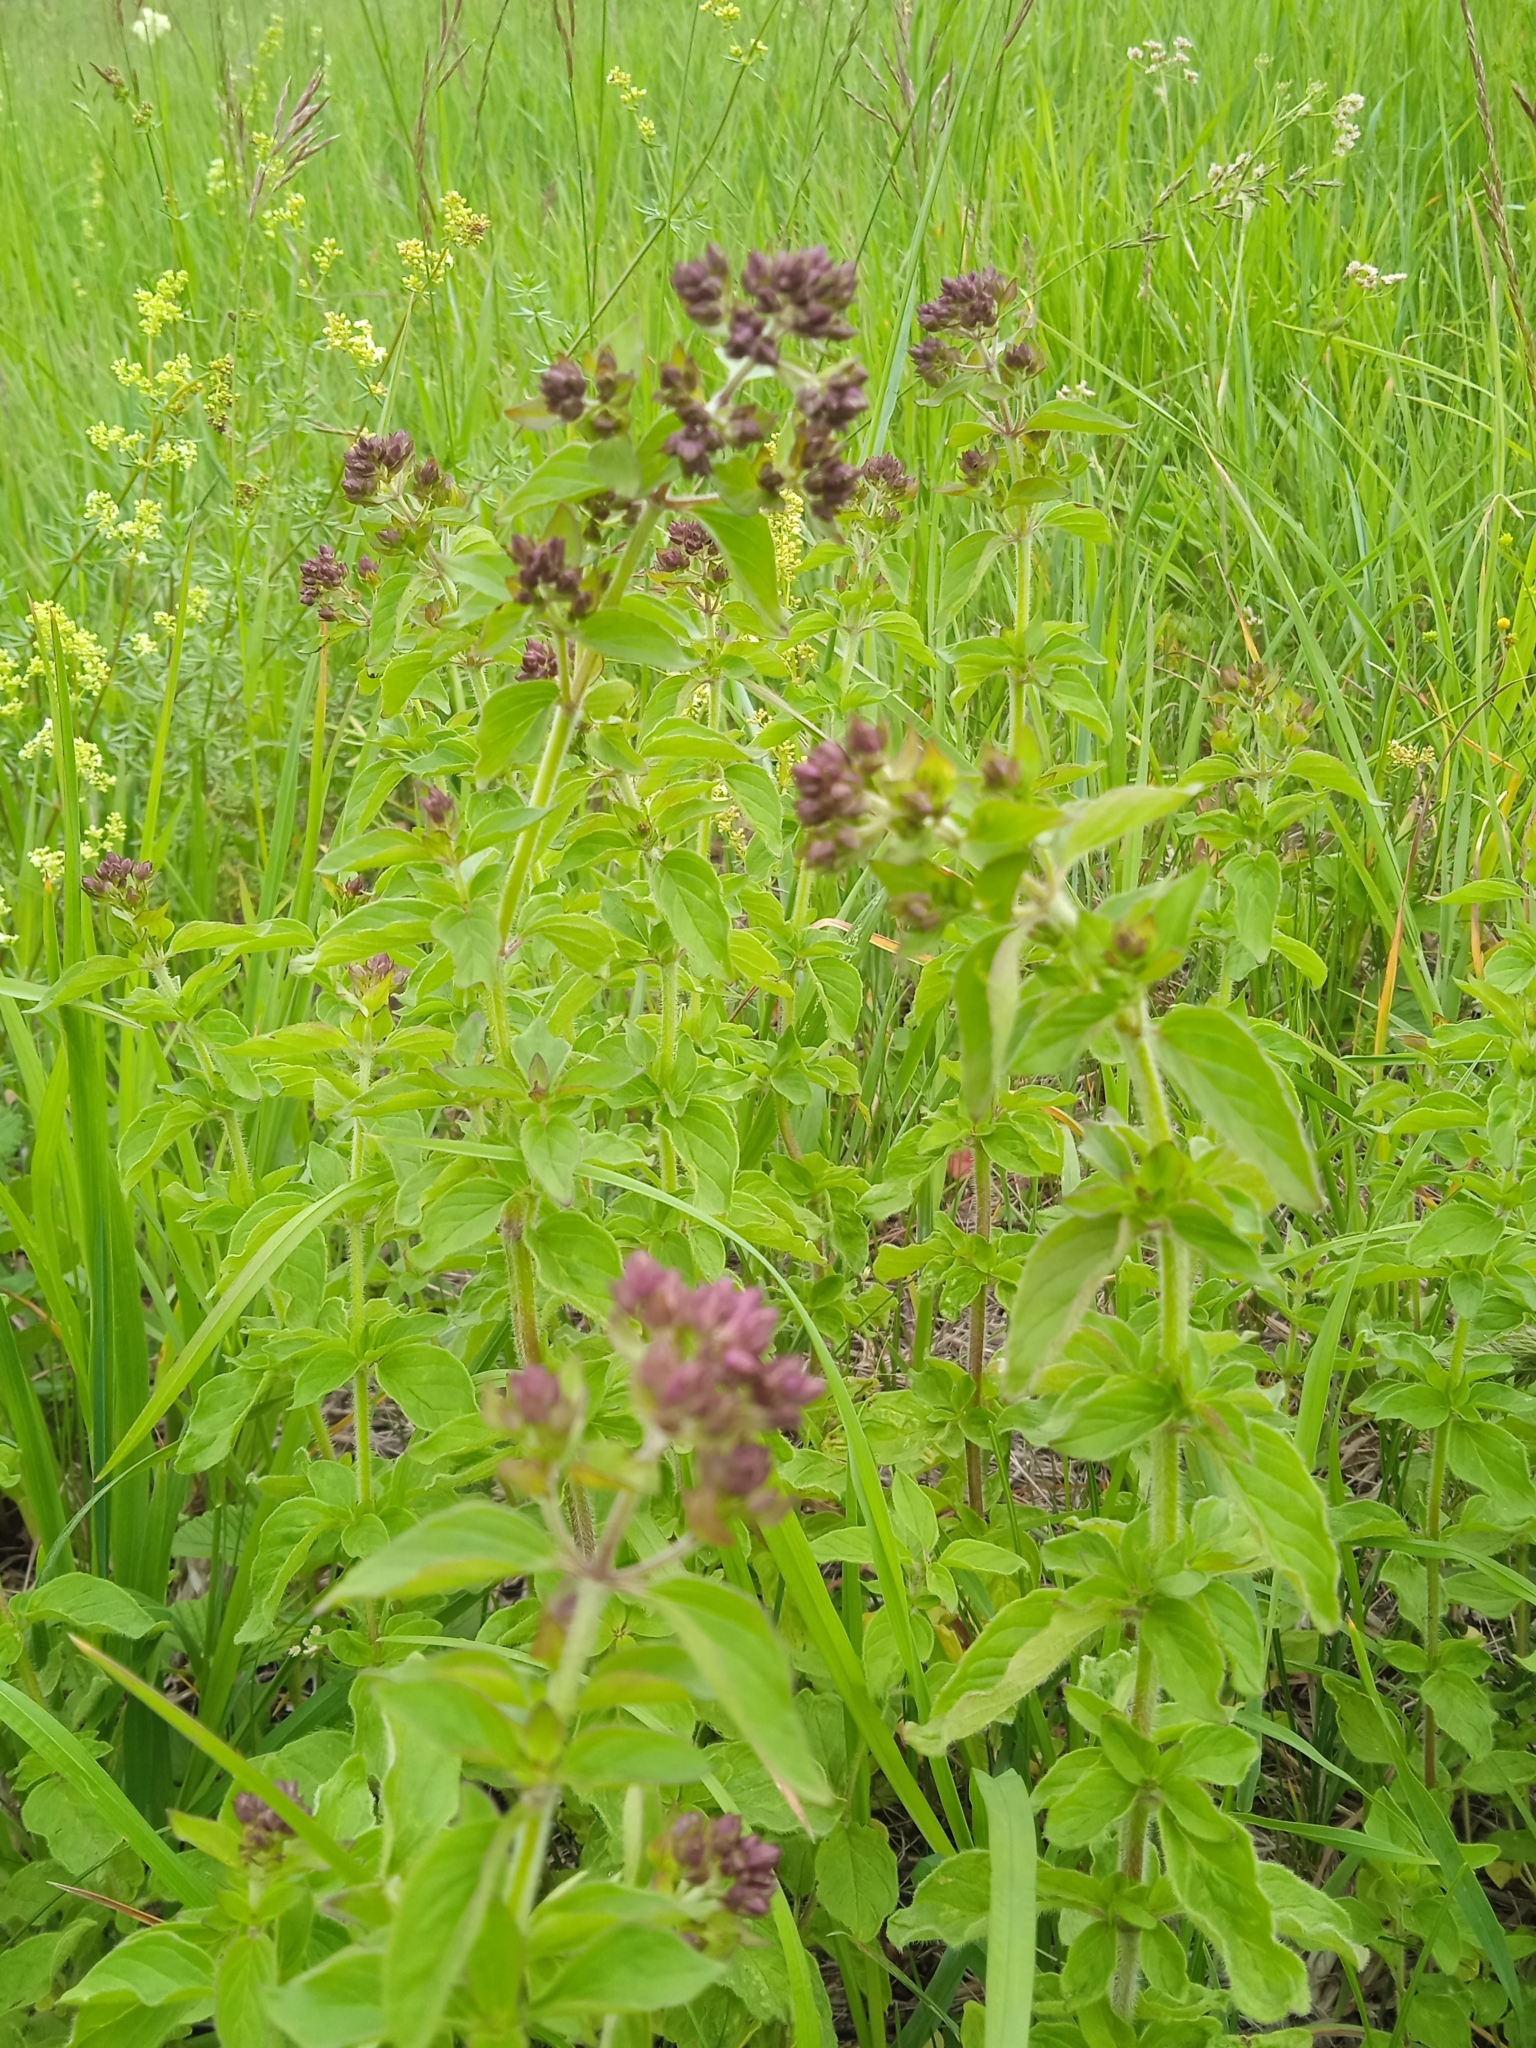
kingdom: Plantae
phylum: Tracheophyta
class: Magnoliopsida
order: Lamiales
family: Lamiaceae
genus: Origanum
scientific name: Origanum vulgare
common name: Wild marjoram
